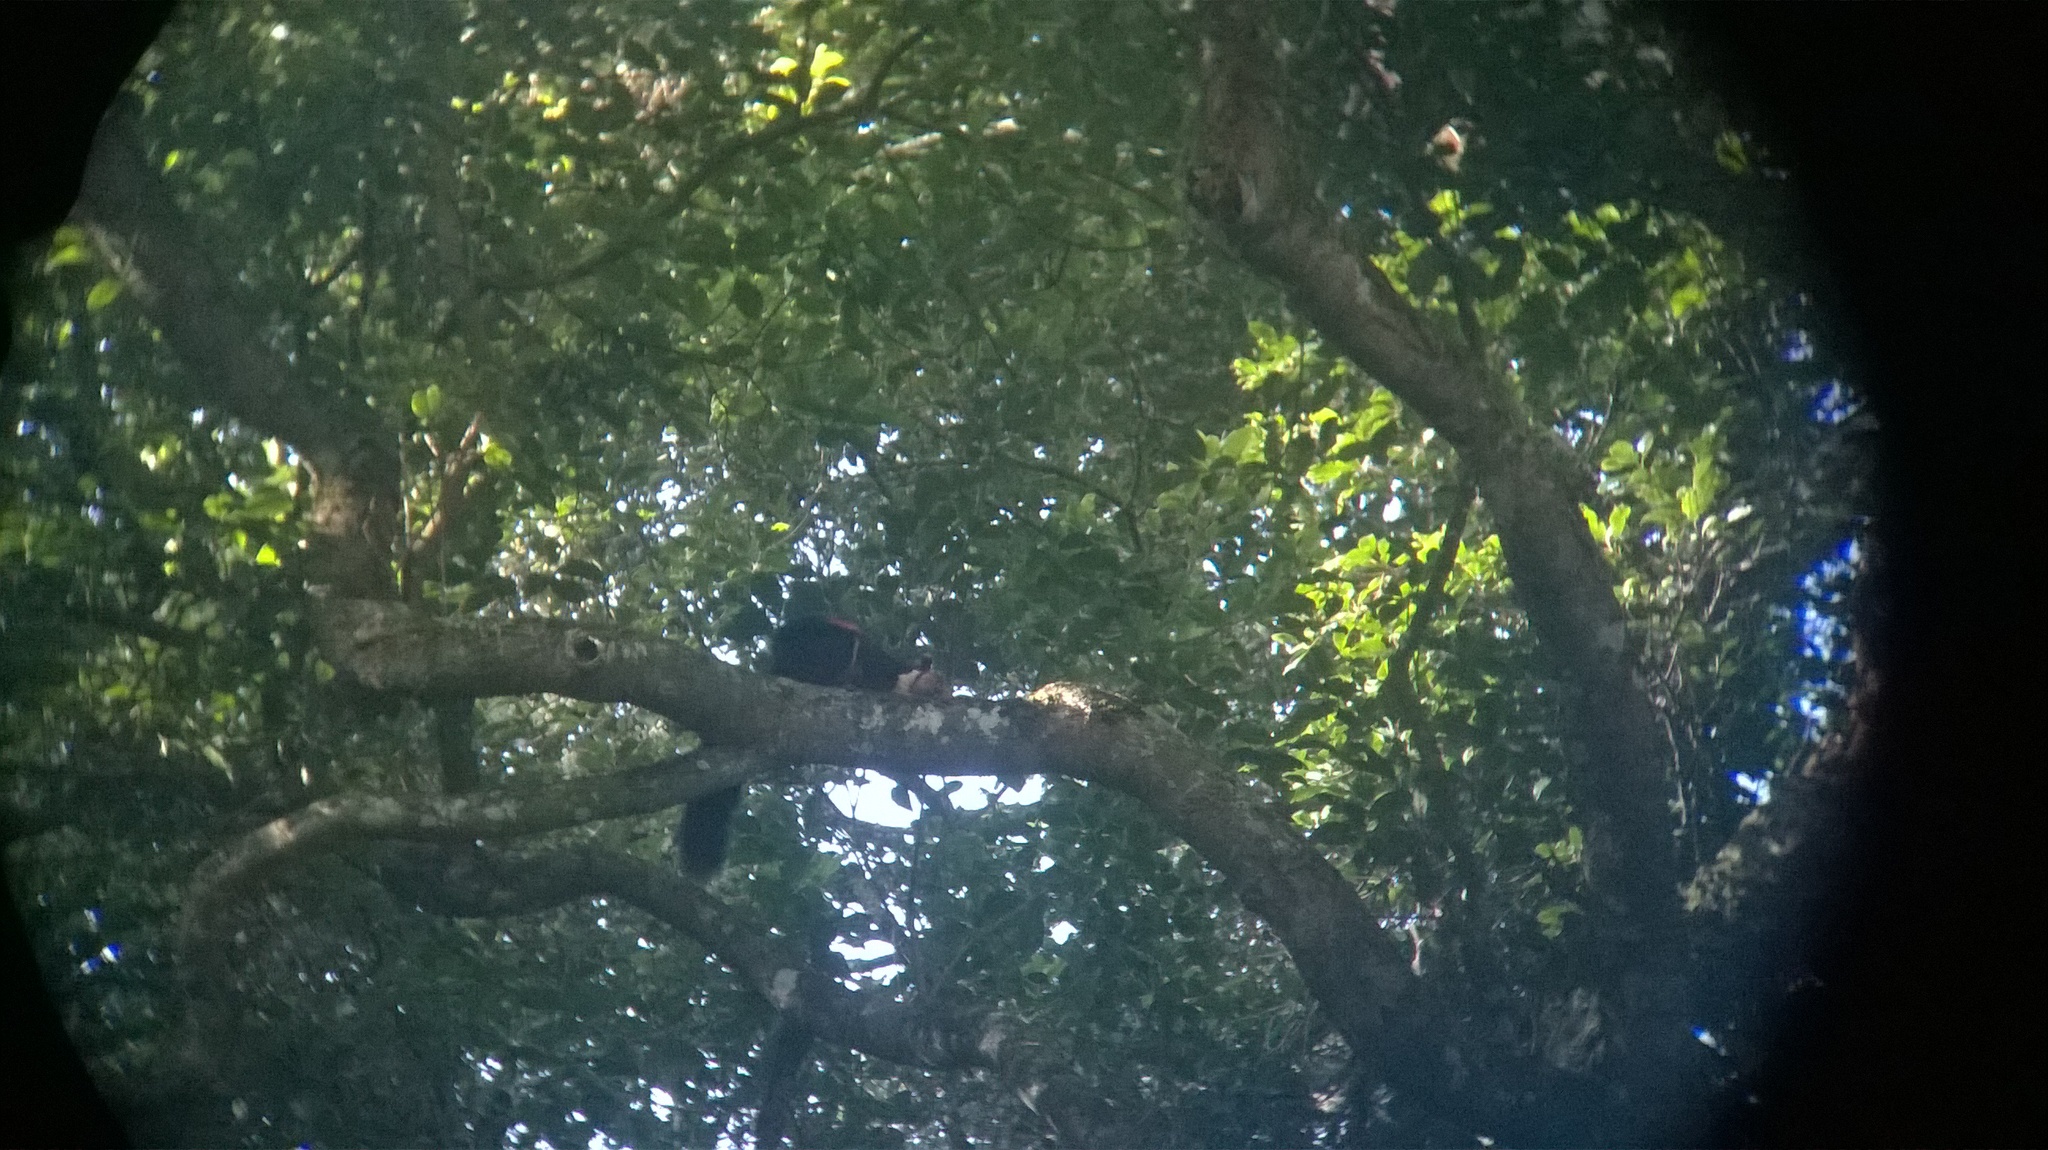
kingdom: Animalia
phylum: Chordata
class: Mammalia
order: Rodentia
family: Sciuridae
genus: Ratufa
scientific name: Ratufa indica
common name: Indian giant squirrel
